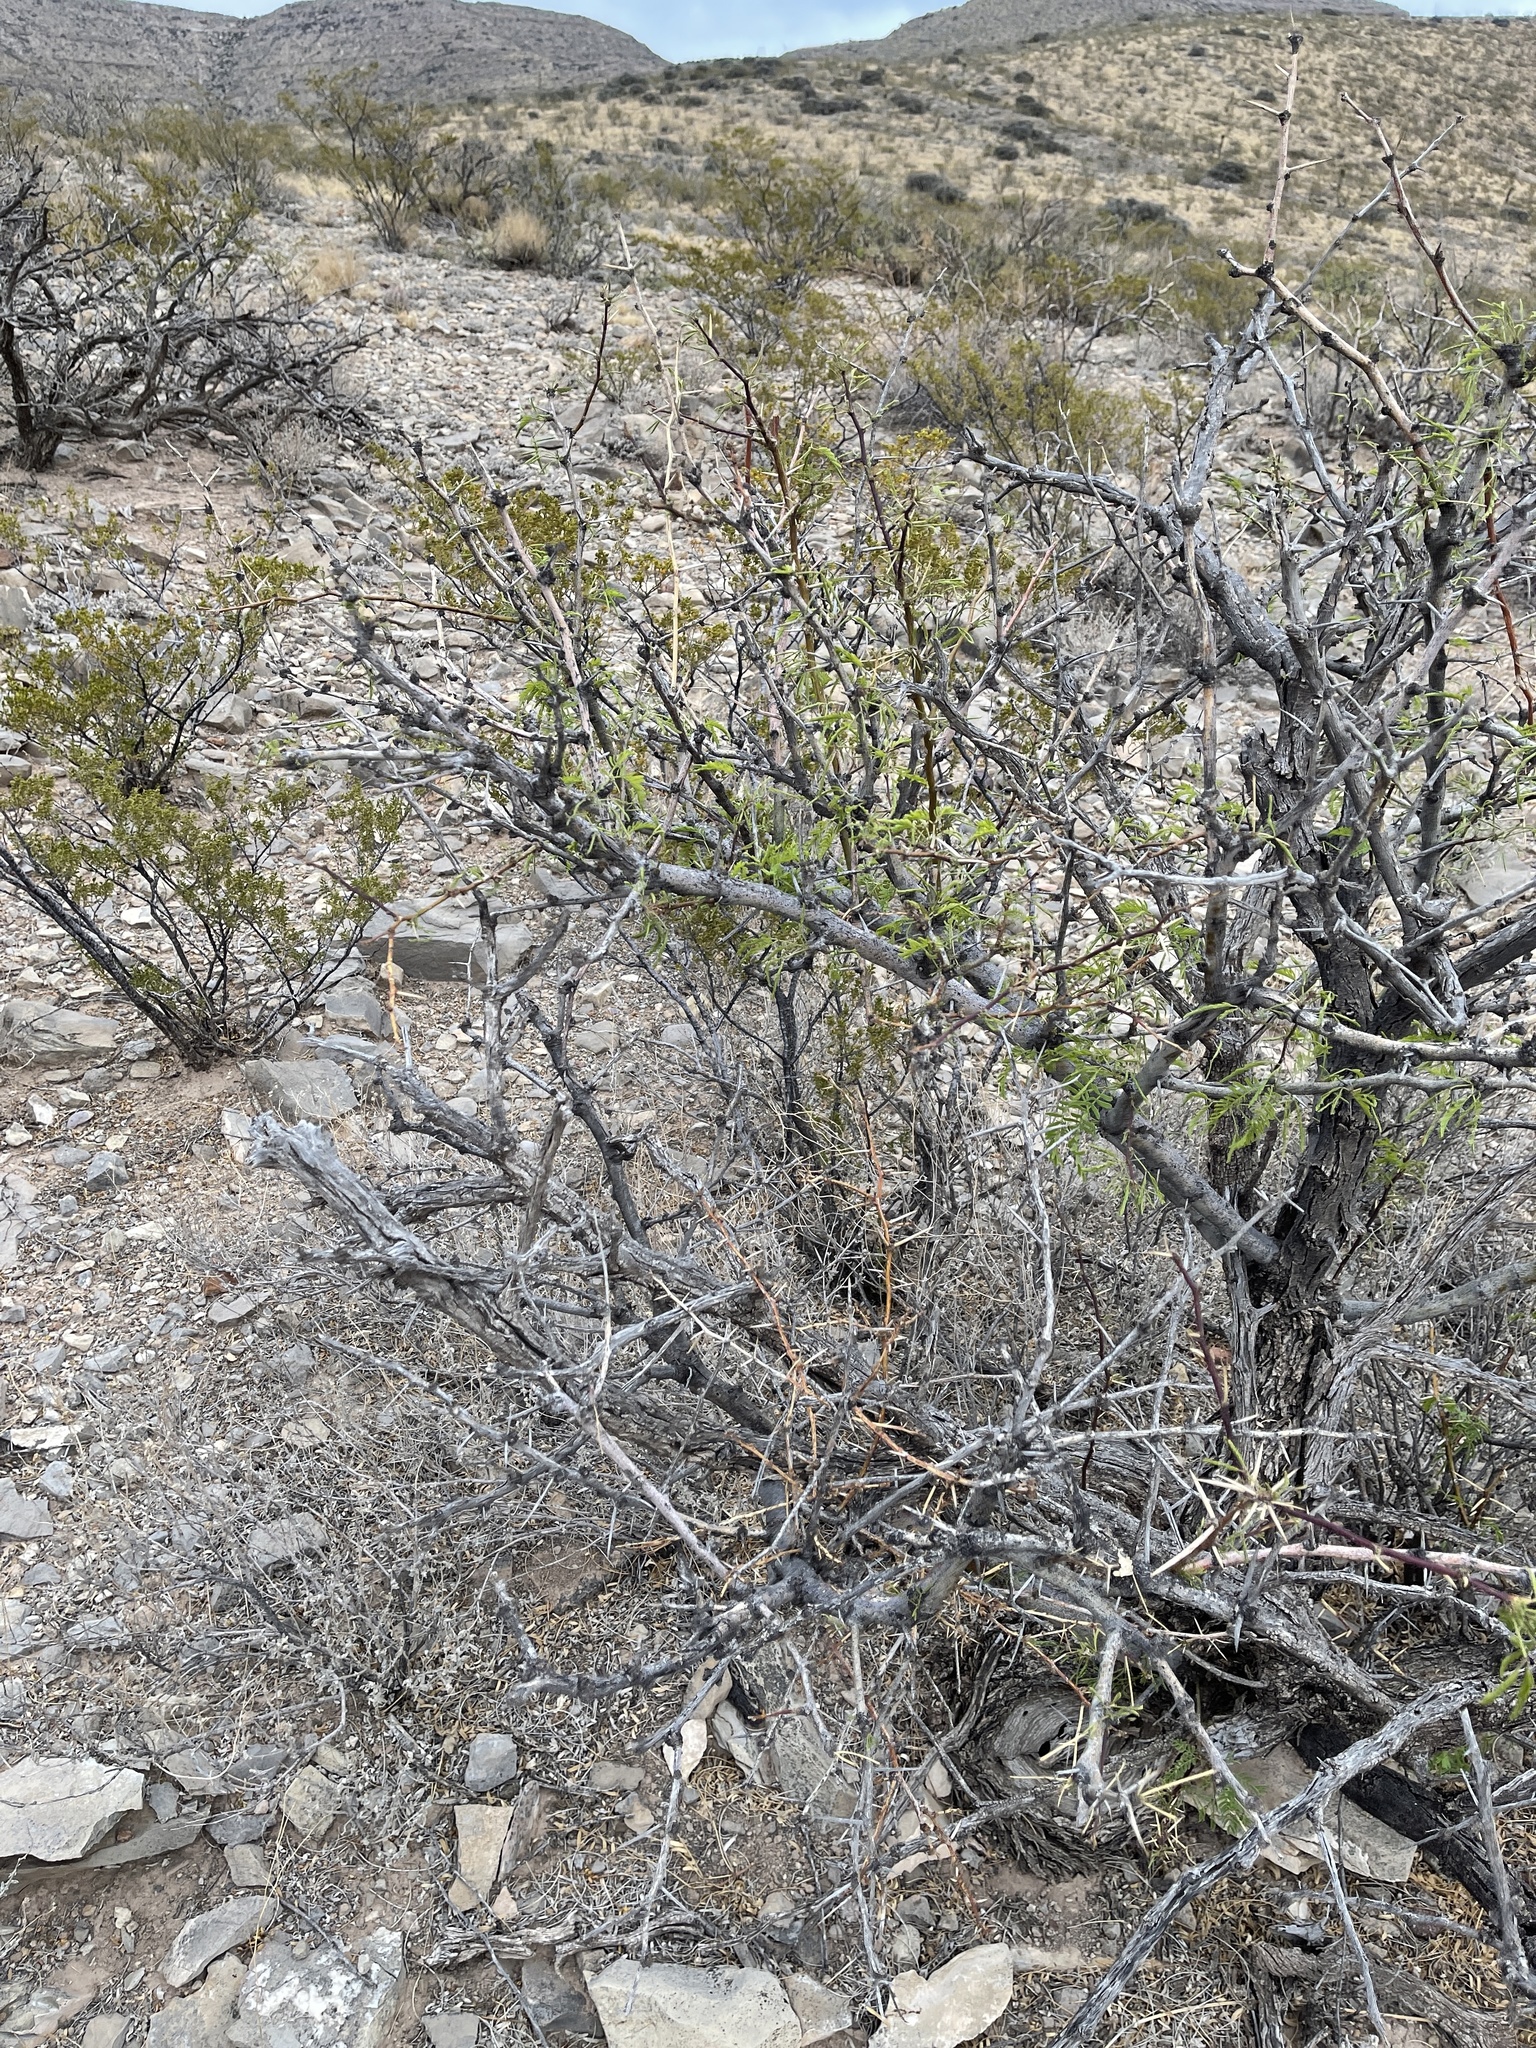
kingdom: Plantae
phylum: Tracheophyta
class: Magnoliopsida
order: Fabales
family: Fabaceae
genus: Prosopis
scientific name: Prosopis glandulosa
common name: Honey mesquite
